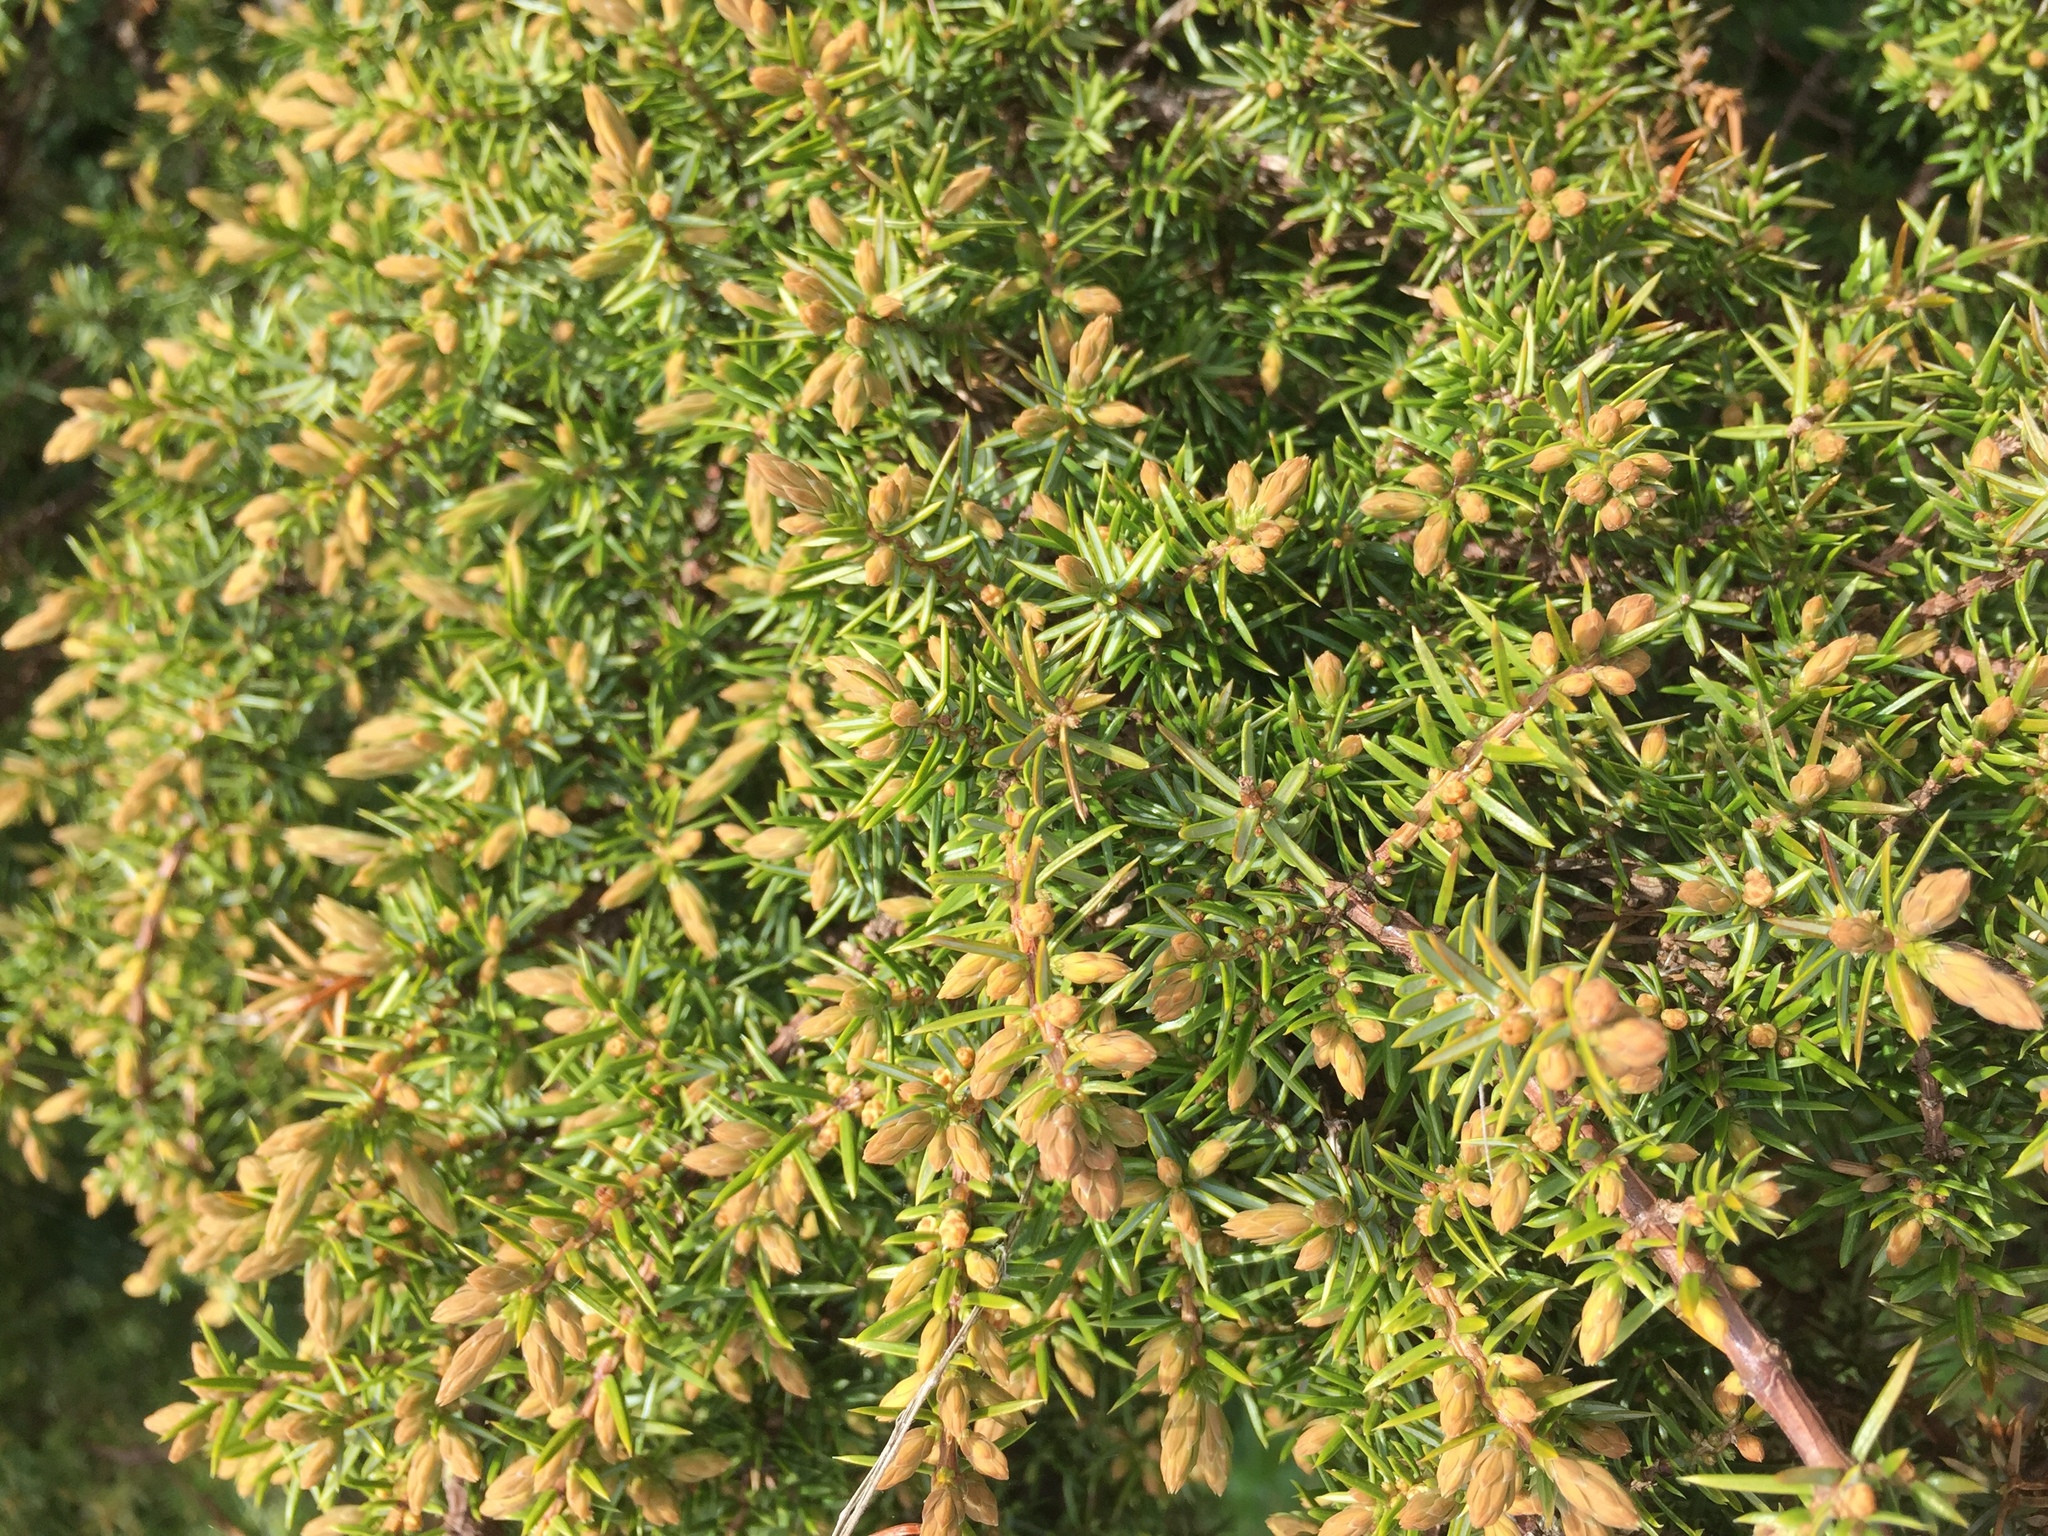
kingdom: Plantae
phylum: Tracheophyta
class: Pinopsida
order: Pinales
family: Cupressaceae
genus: Juniperus
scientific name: Juniperus communis
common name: Common juniper
